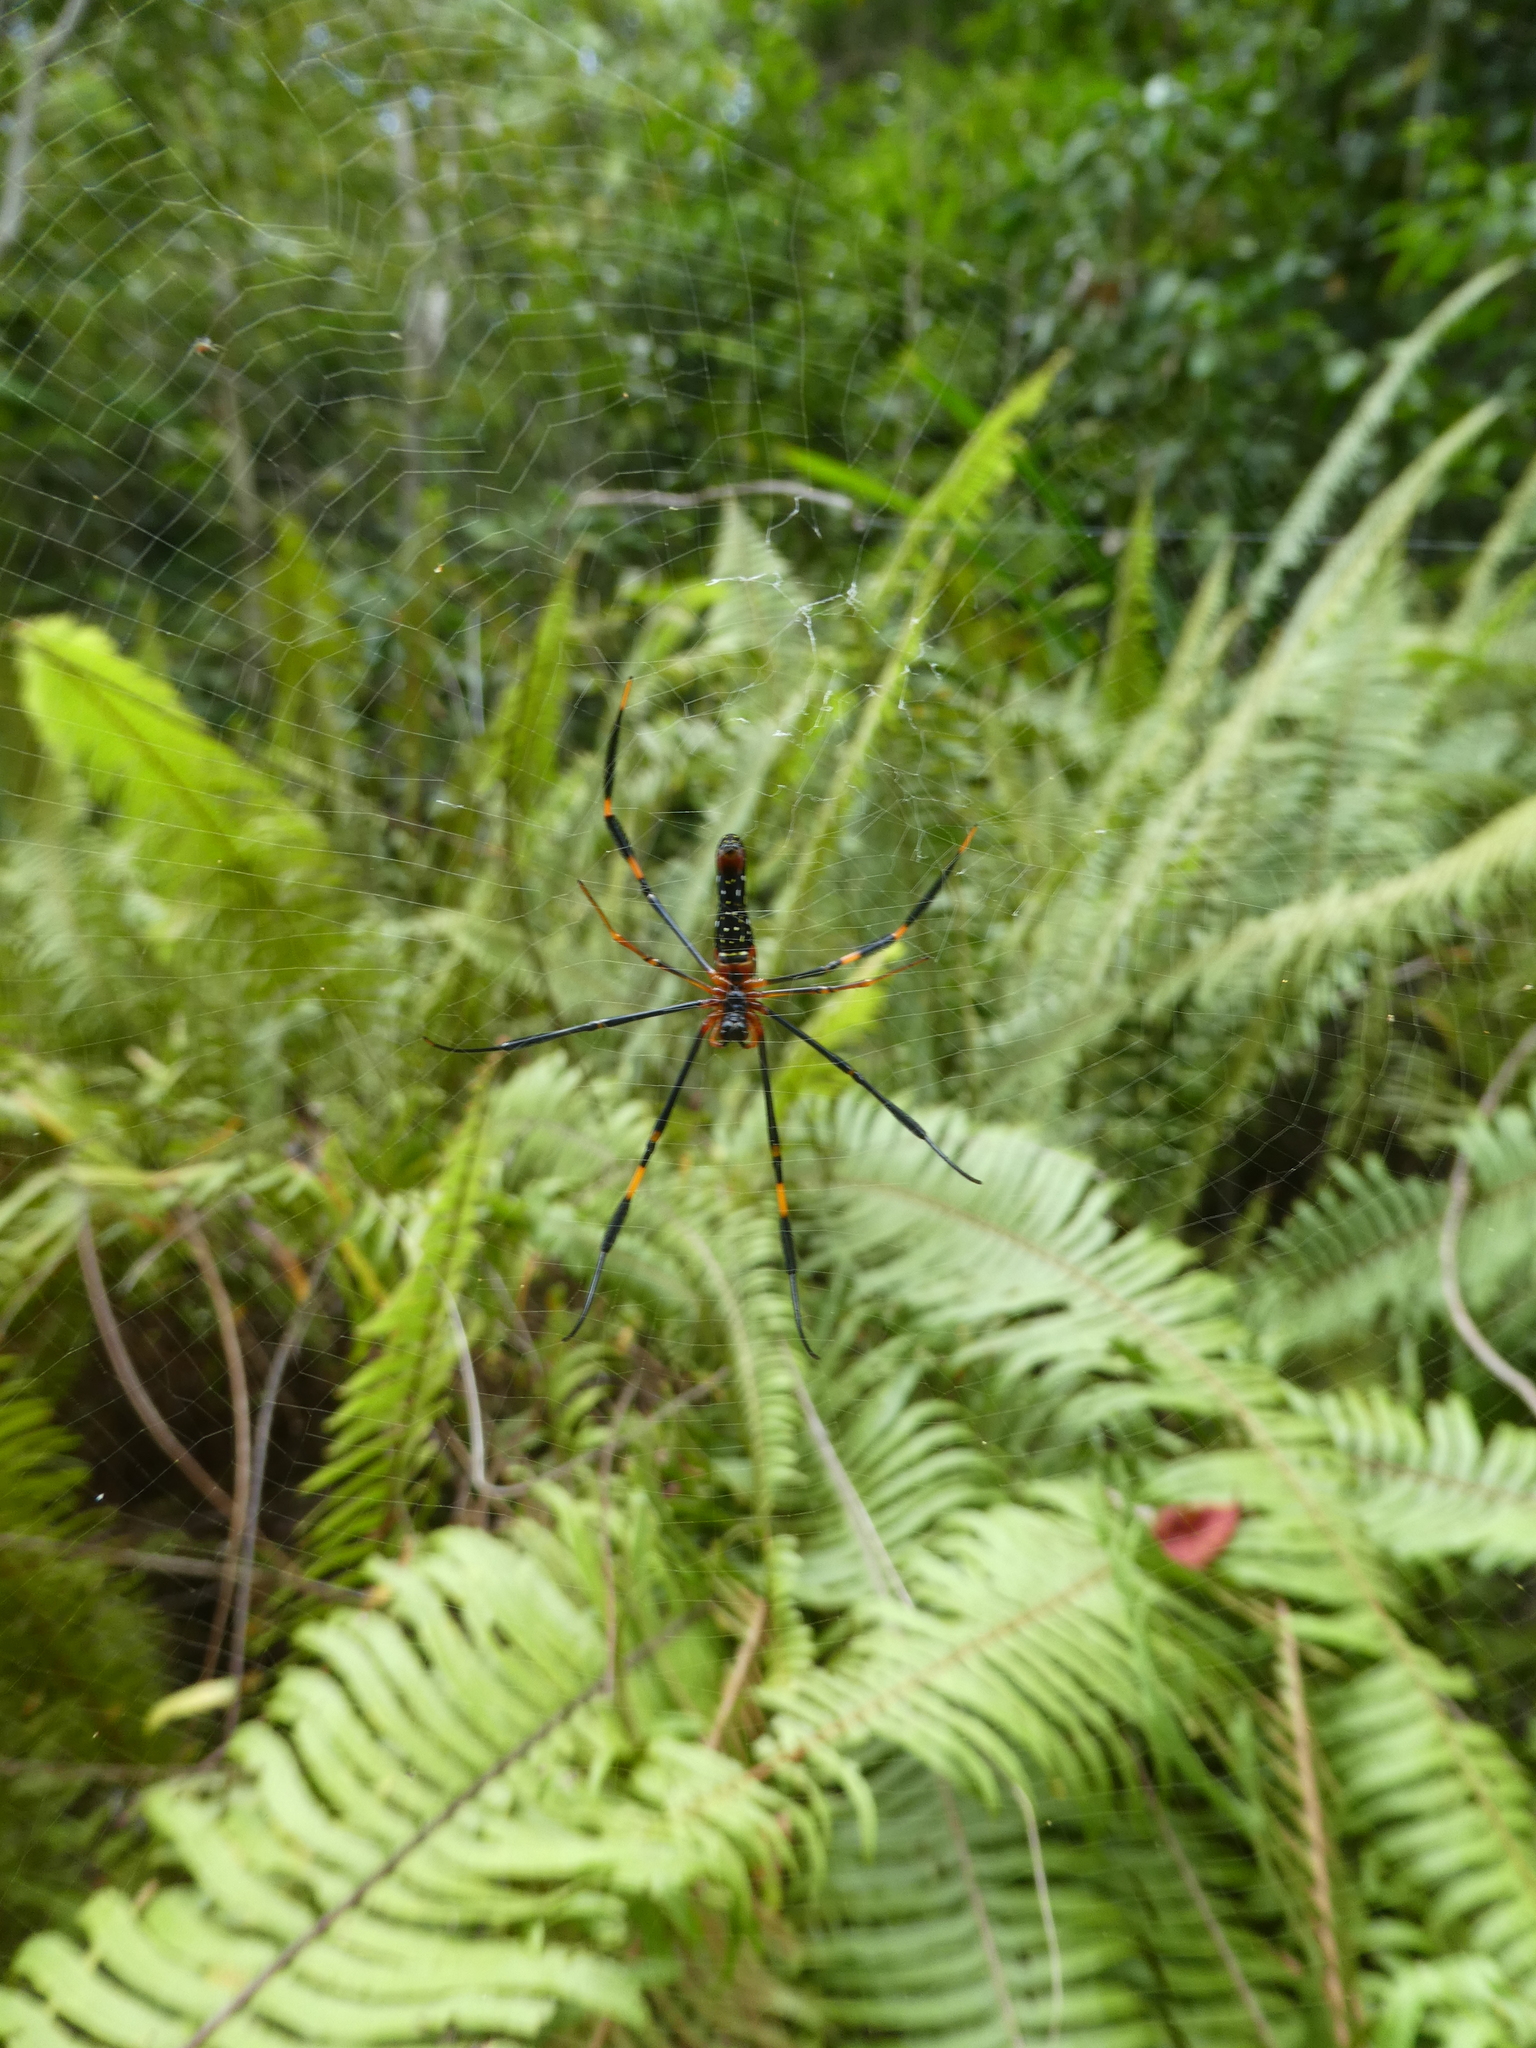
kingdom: Animalia
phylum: Arthropoda
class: Arachnida
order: Araneae
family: Araneidae
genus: Nephila
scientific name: Nephila pilipes
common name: Giant golden orb weaver
